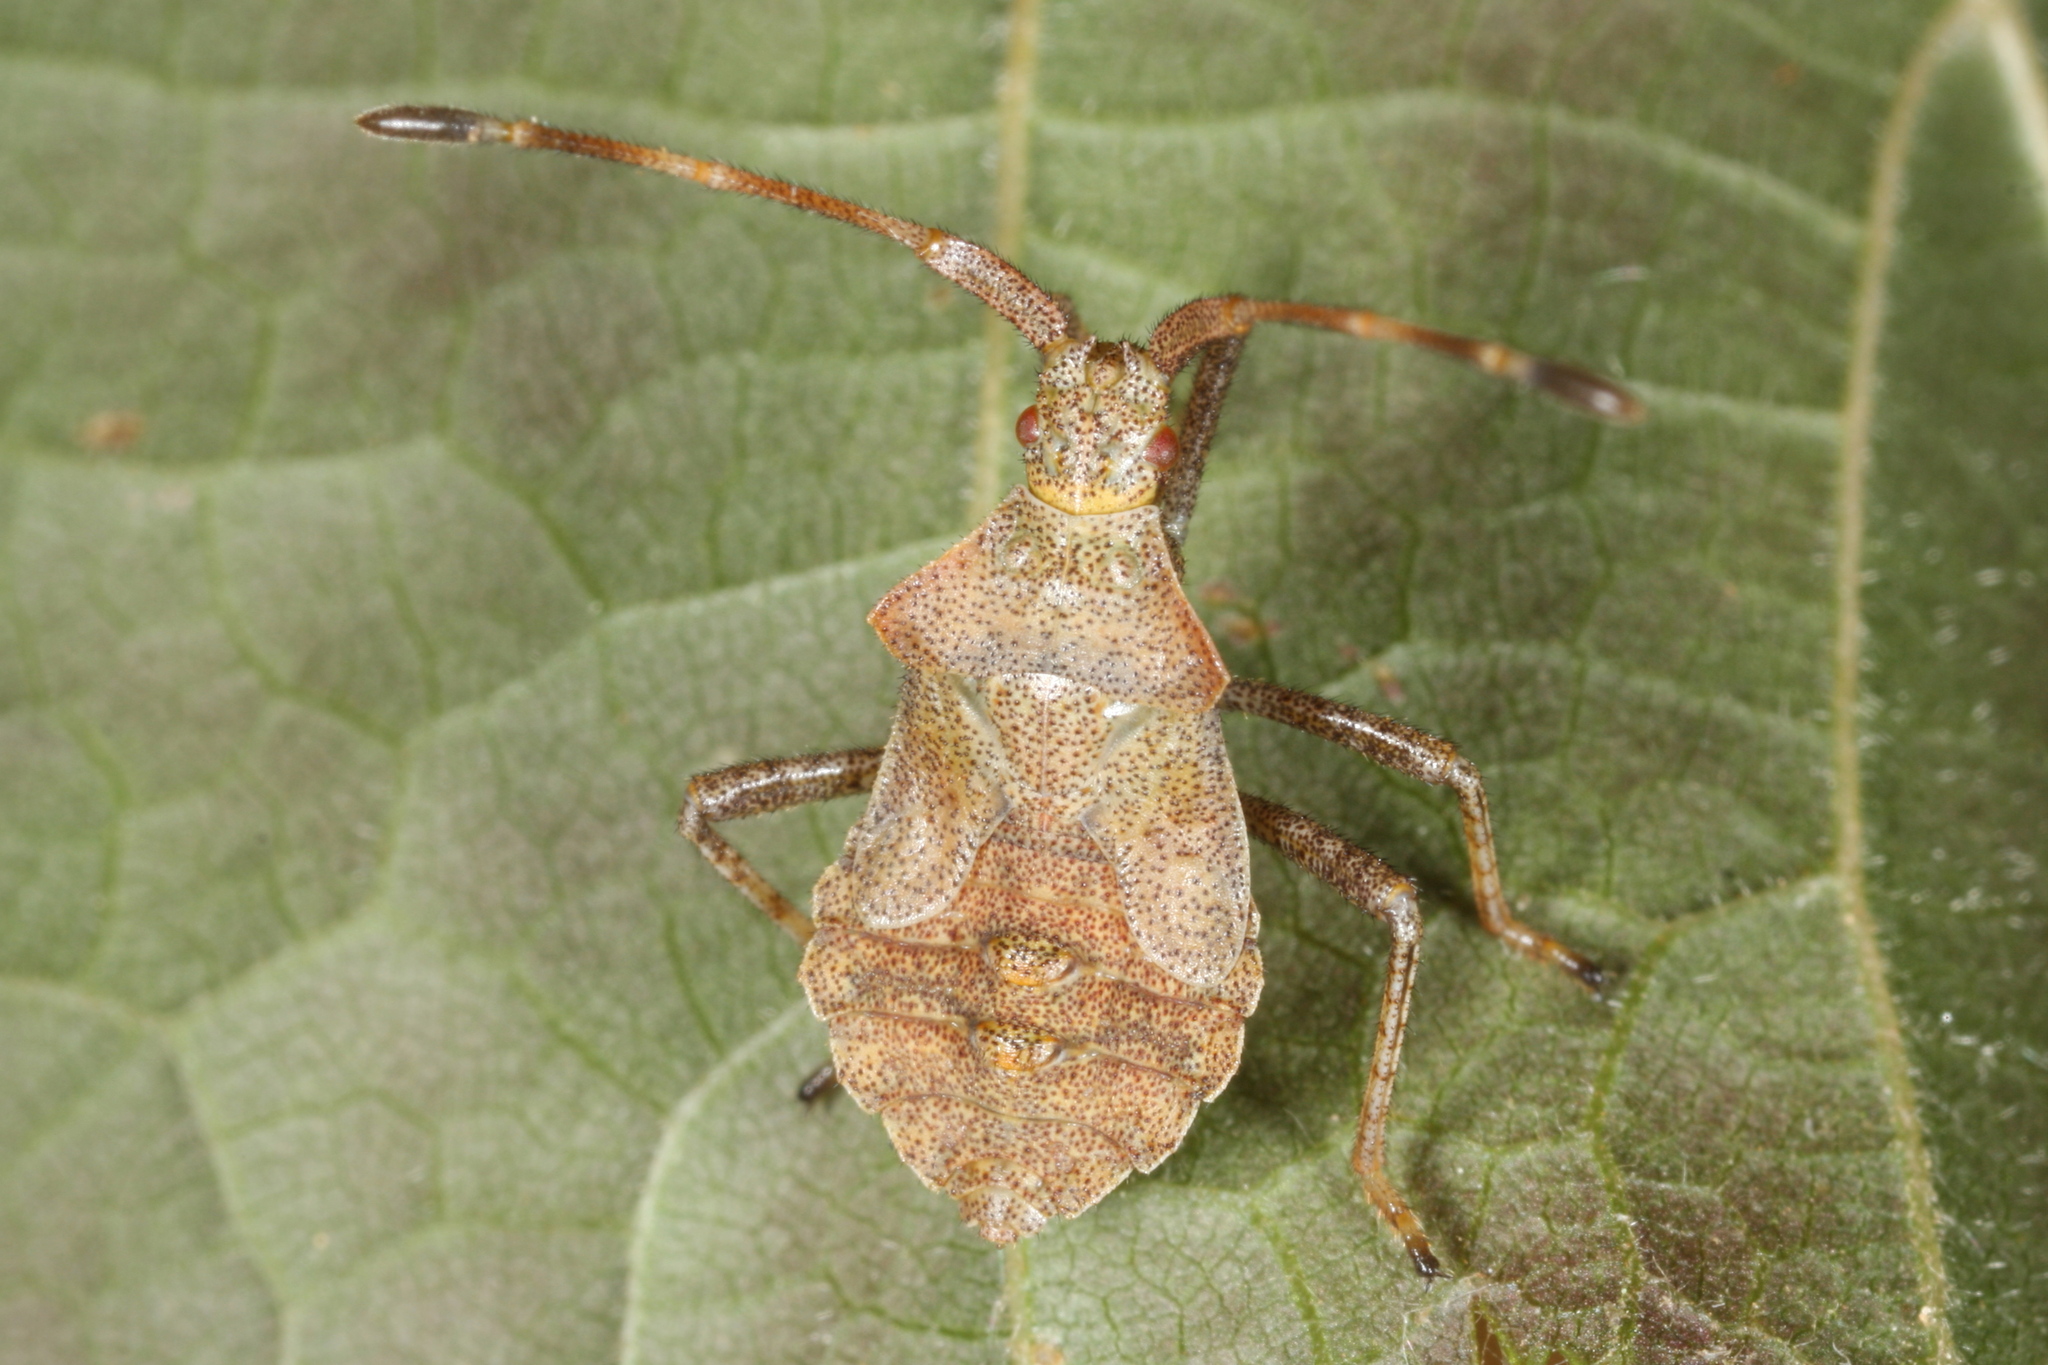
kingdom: Animalia
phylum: Arthropoda
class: Insecta
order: Hemiptera
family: Coreidae
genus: Coreus
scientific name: Coreus marginatus
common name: Dock bug
